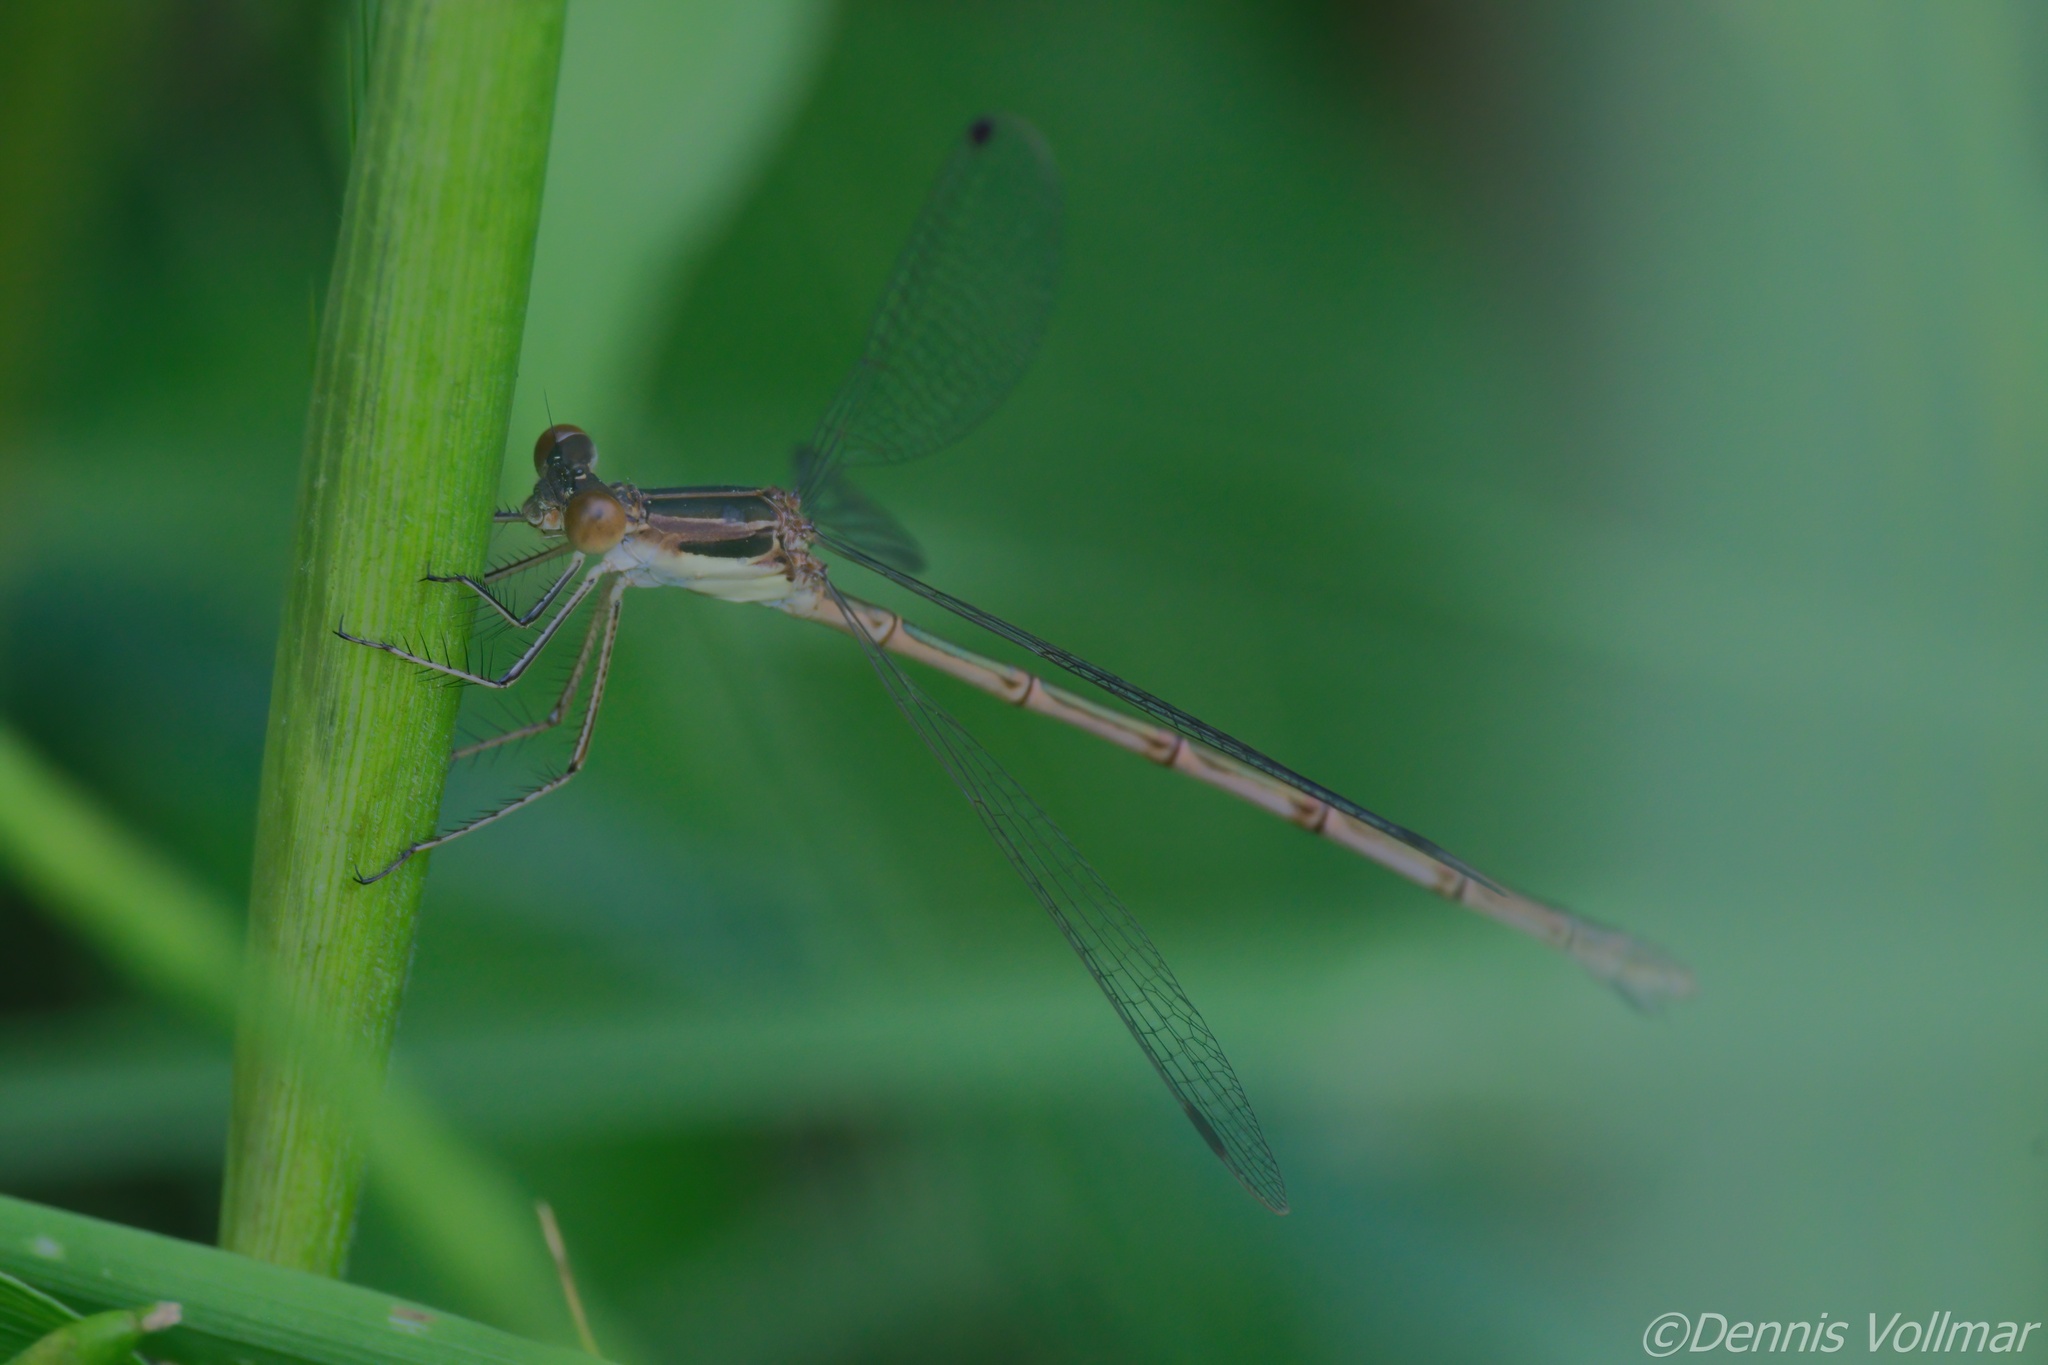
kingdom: Animalia
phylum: Arthropoda
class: Insecta
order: Odonata
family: Lestidae
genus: Lestes
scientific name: Lestes rectangularis
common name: Slender spreadwing
